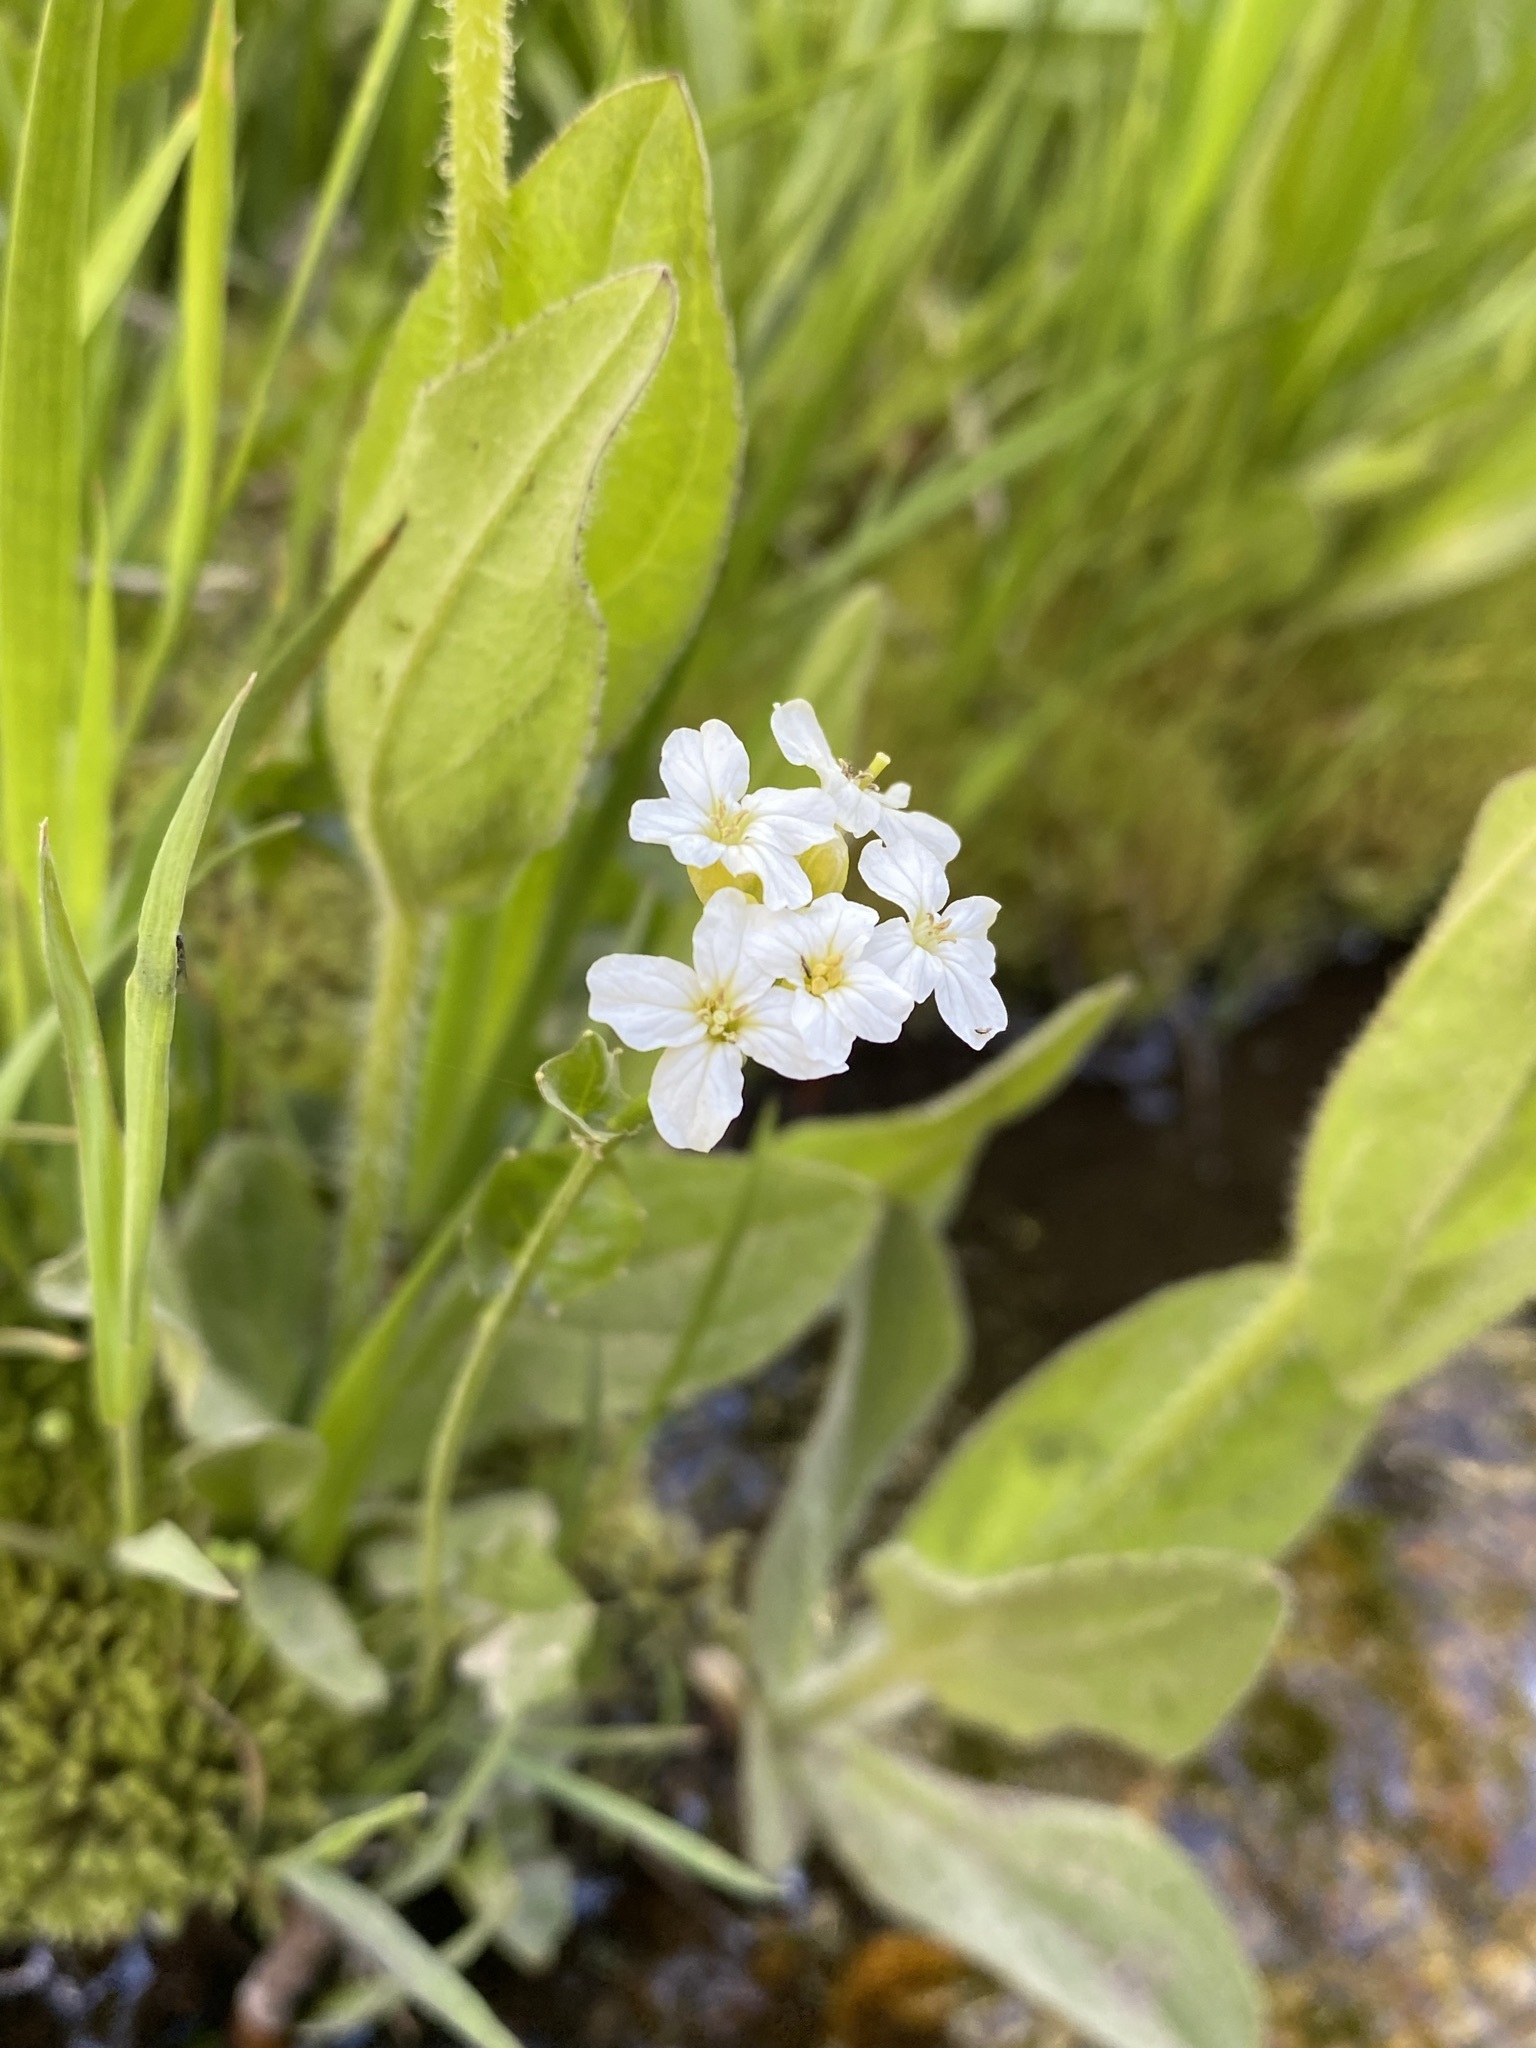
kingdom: Plantae
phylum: Tracheophyta
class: Magnoliopsida
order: Brassicales
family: Brassicaceae
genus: Cardamine
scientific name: Cardamine cordifolia
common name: Heart-leaf bittercress
